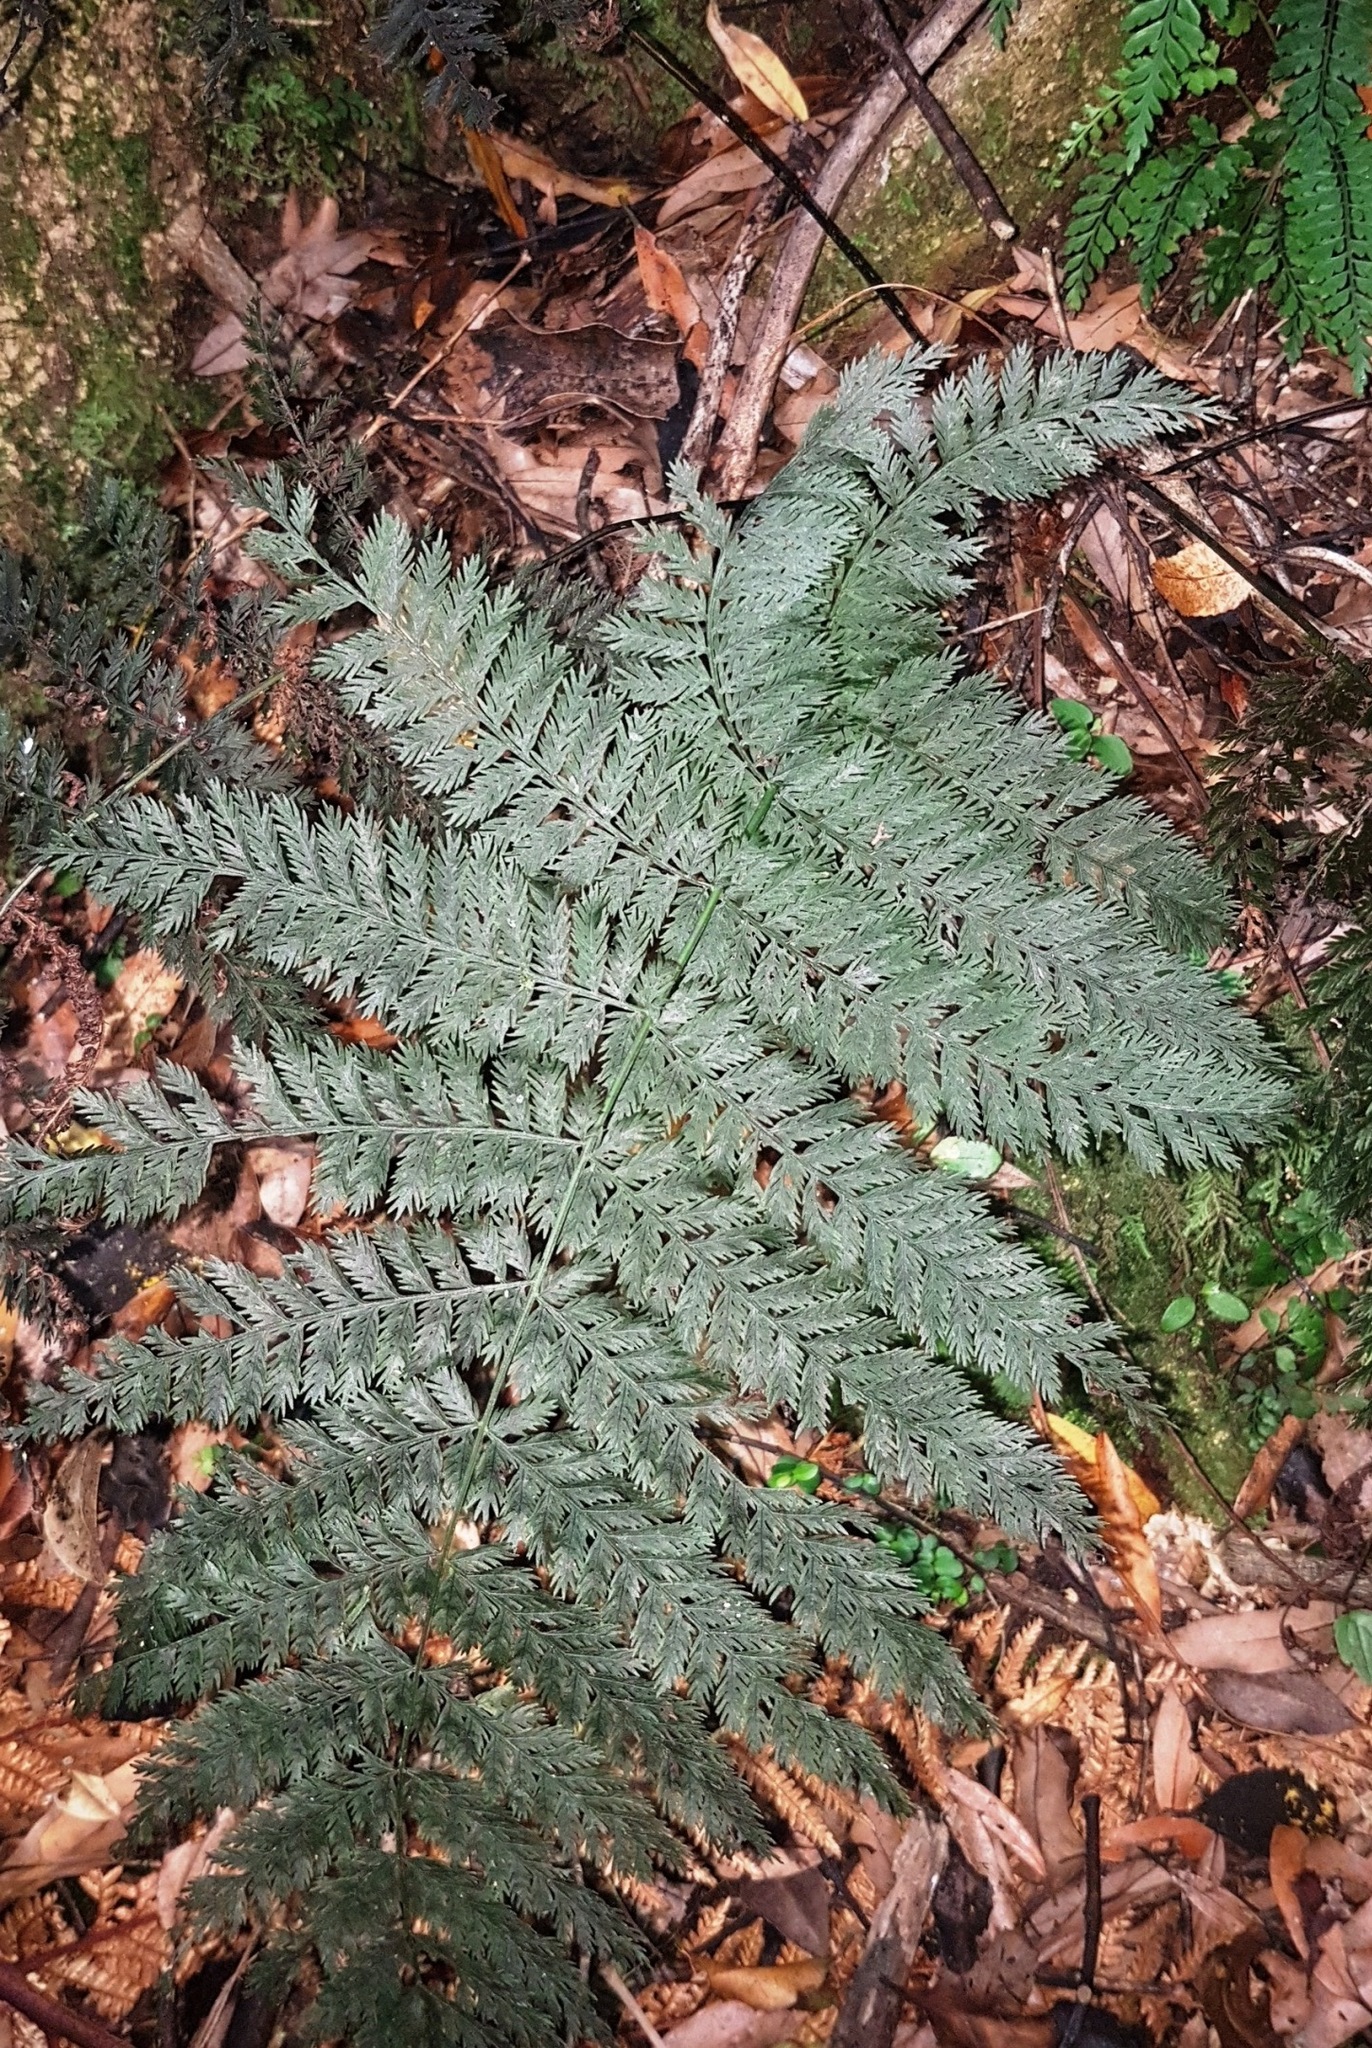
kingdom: Plantae
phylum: Tracheophyta
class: Polypodiopsida
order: Osmundales
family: Osmundaceae
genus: Leptopteris
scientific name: Leptopteris hymenophylloides
